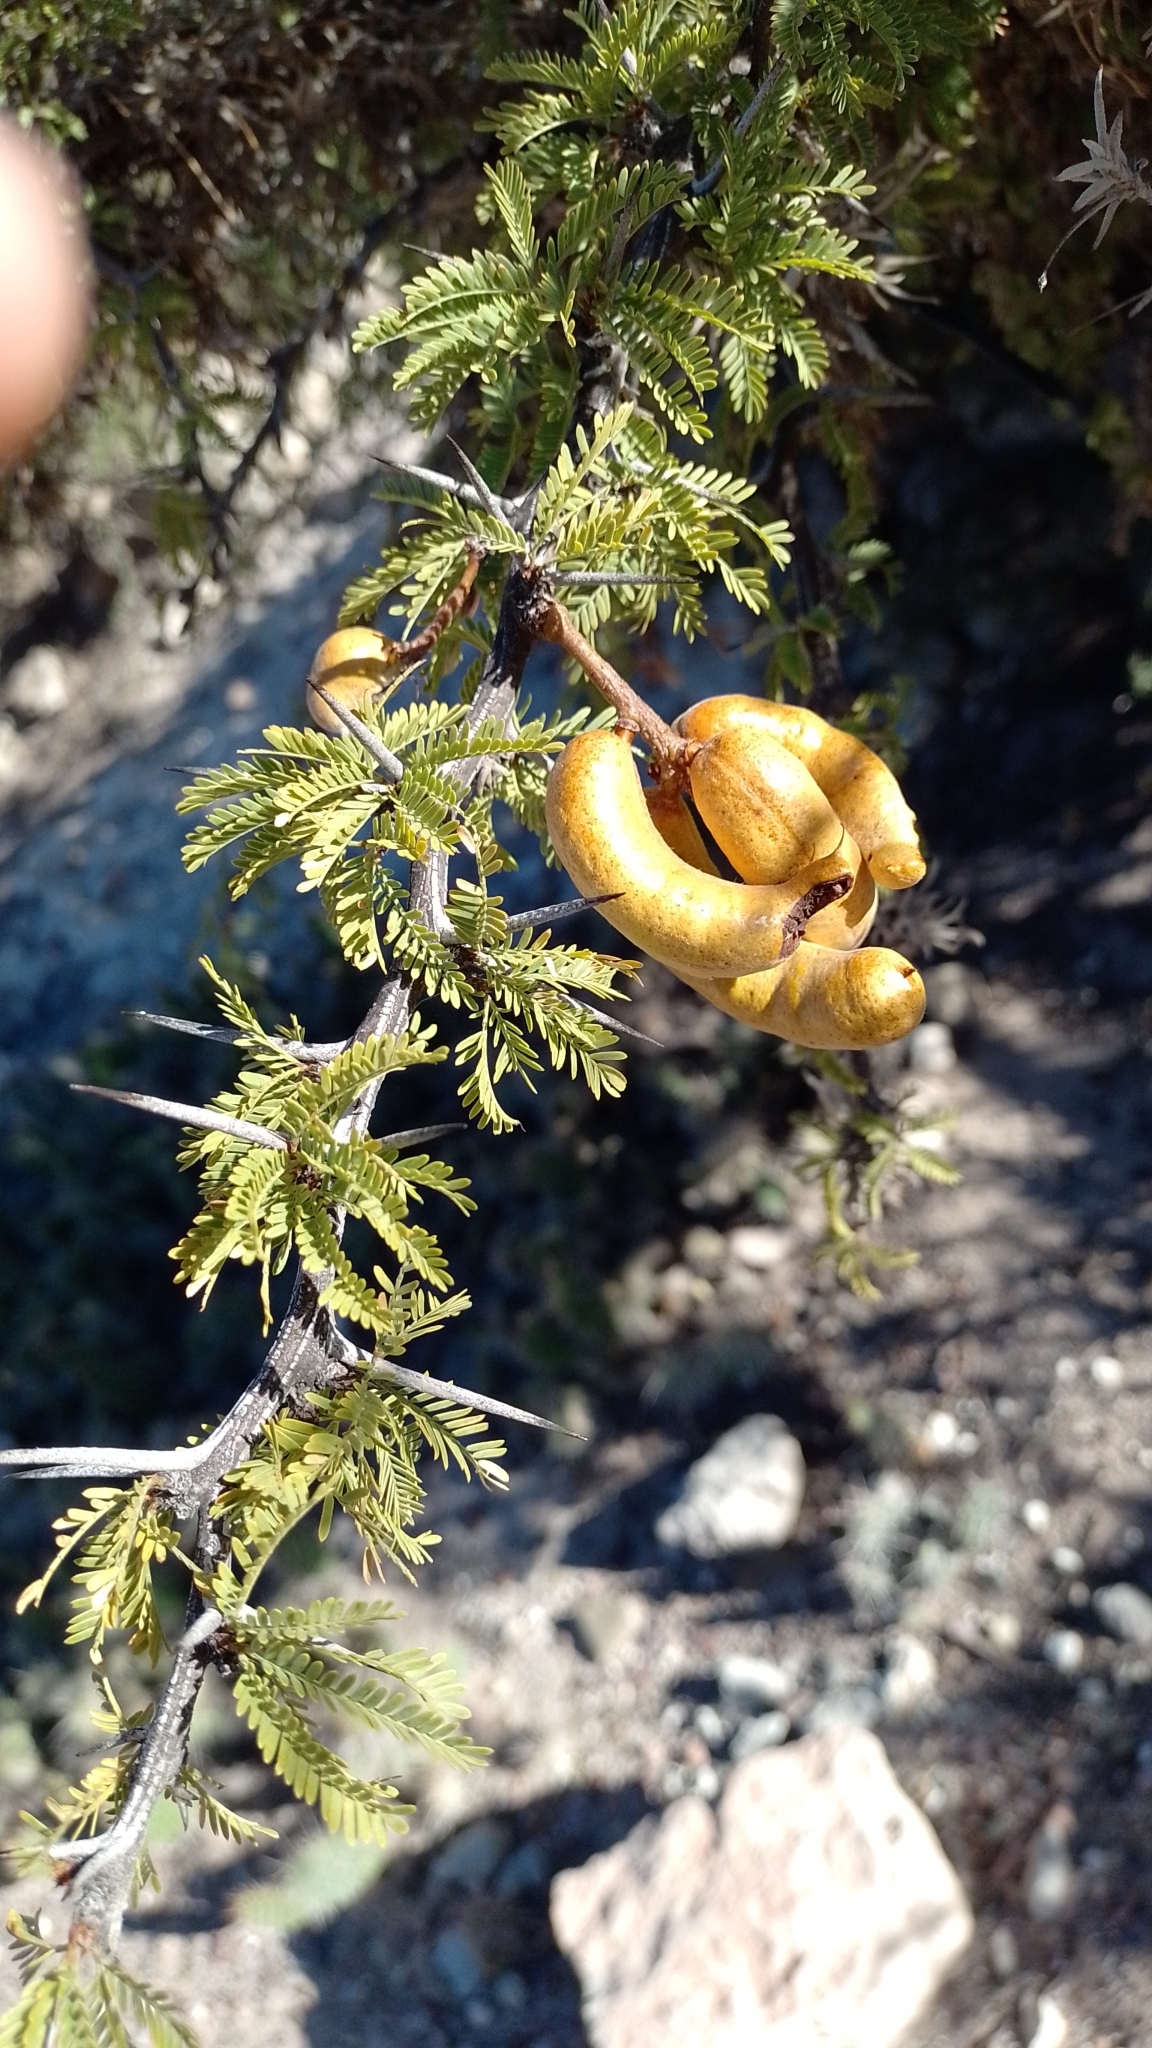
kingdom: Plantae
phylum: Tracheophyta
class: Magnoliopsida
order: Fabales
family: Fabaceae
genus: Prosopis
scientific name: Prosopis ferox
